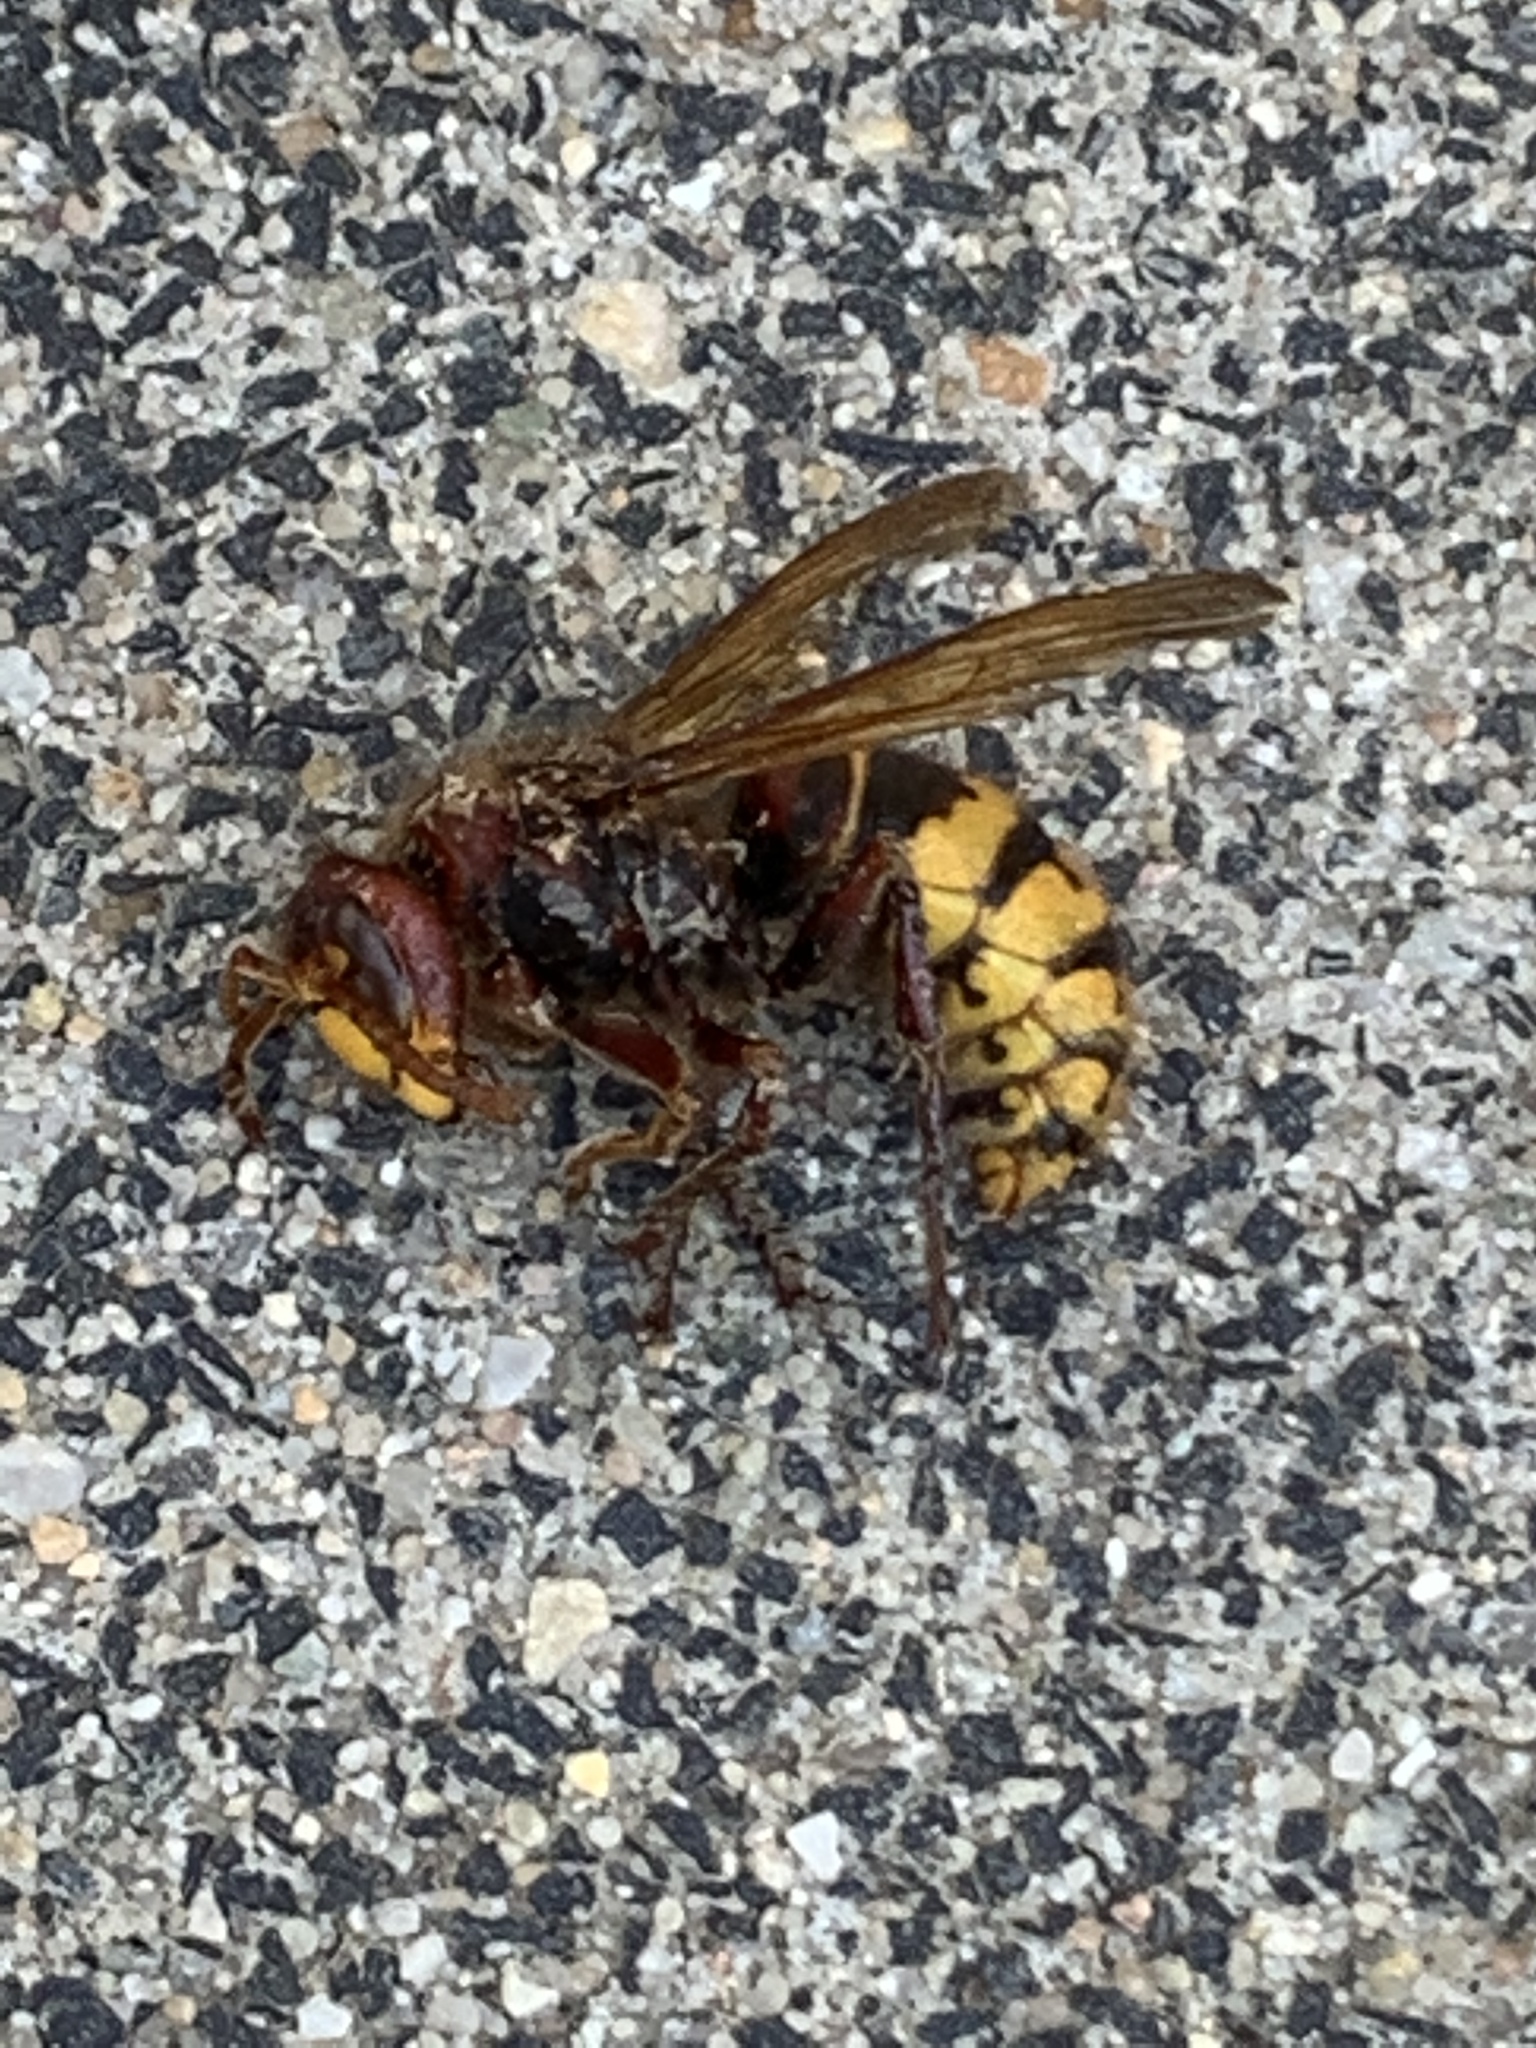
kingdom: Animalia
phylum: Arthropoda
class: Insecta
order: Hymenoptera
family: Vespidae
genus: Vespa
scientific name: Vespa crabro
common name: Hornet
